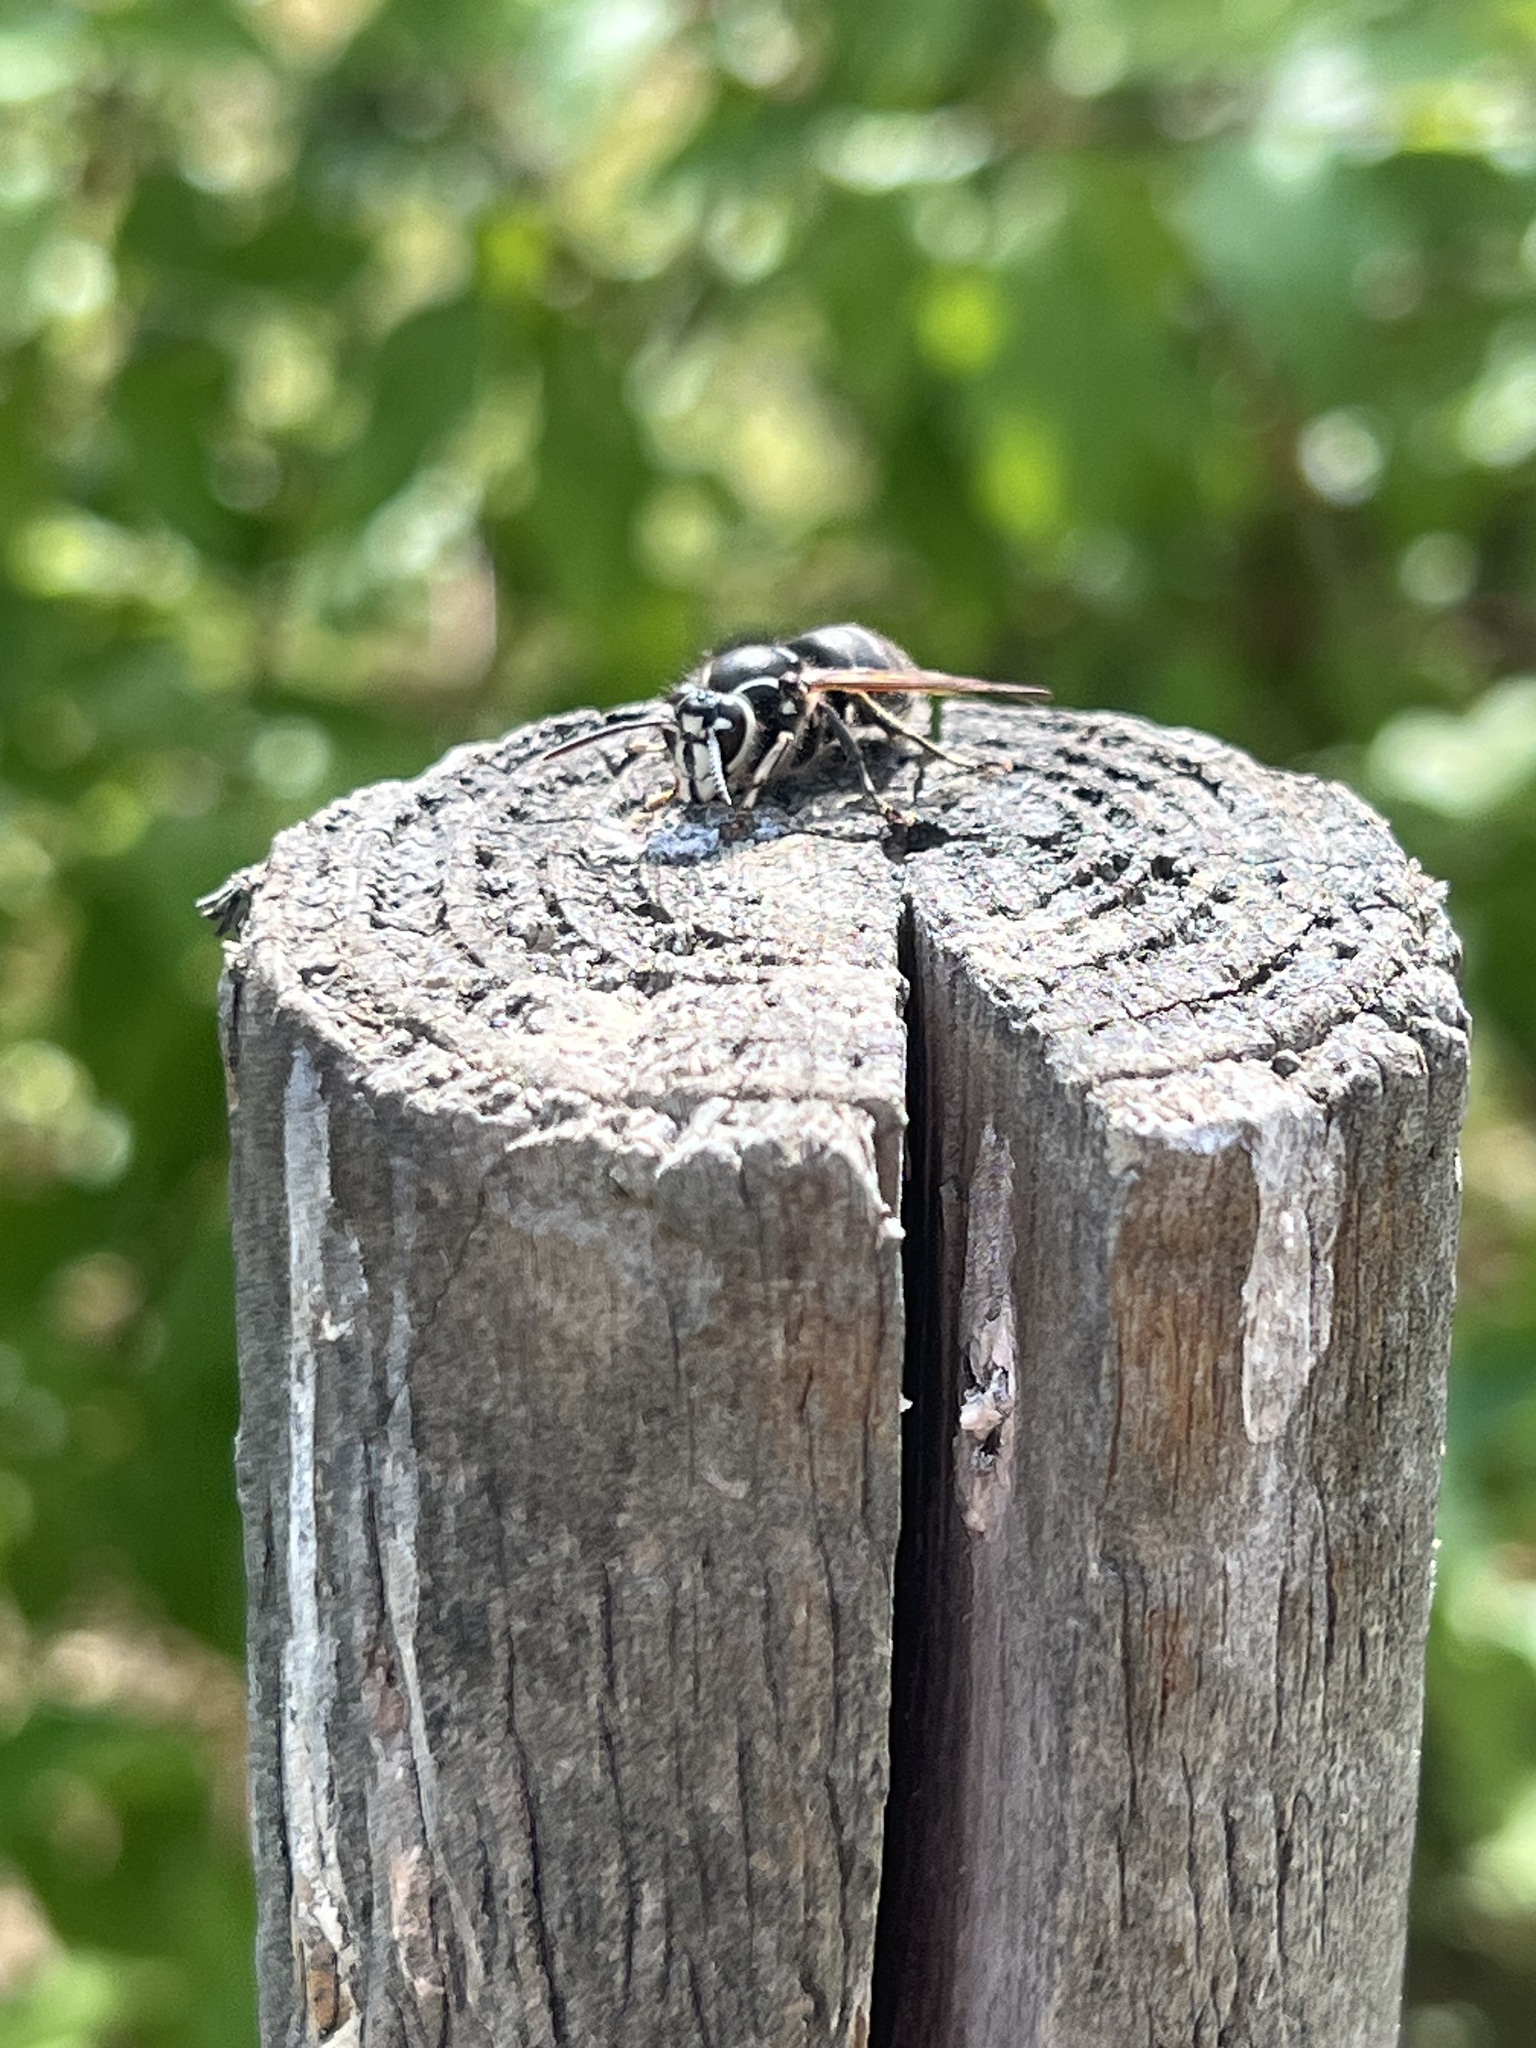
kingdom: Animalia
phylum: Arthropoda
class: Insecta
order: Hymenoptera
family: Vespidae
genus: Dolichovespula
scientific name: Dolichovespula maculata
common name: Bald-faced hornet
